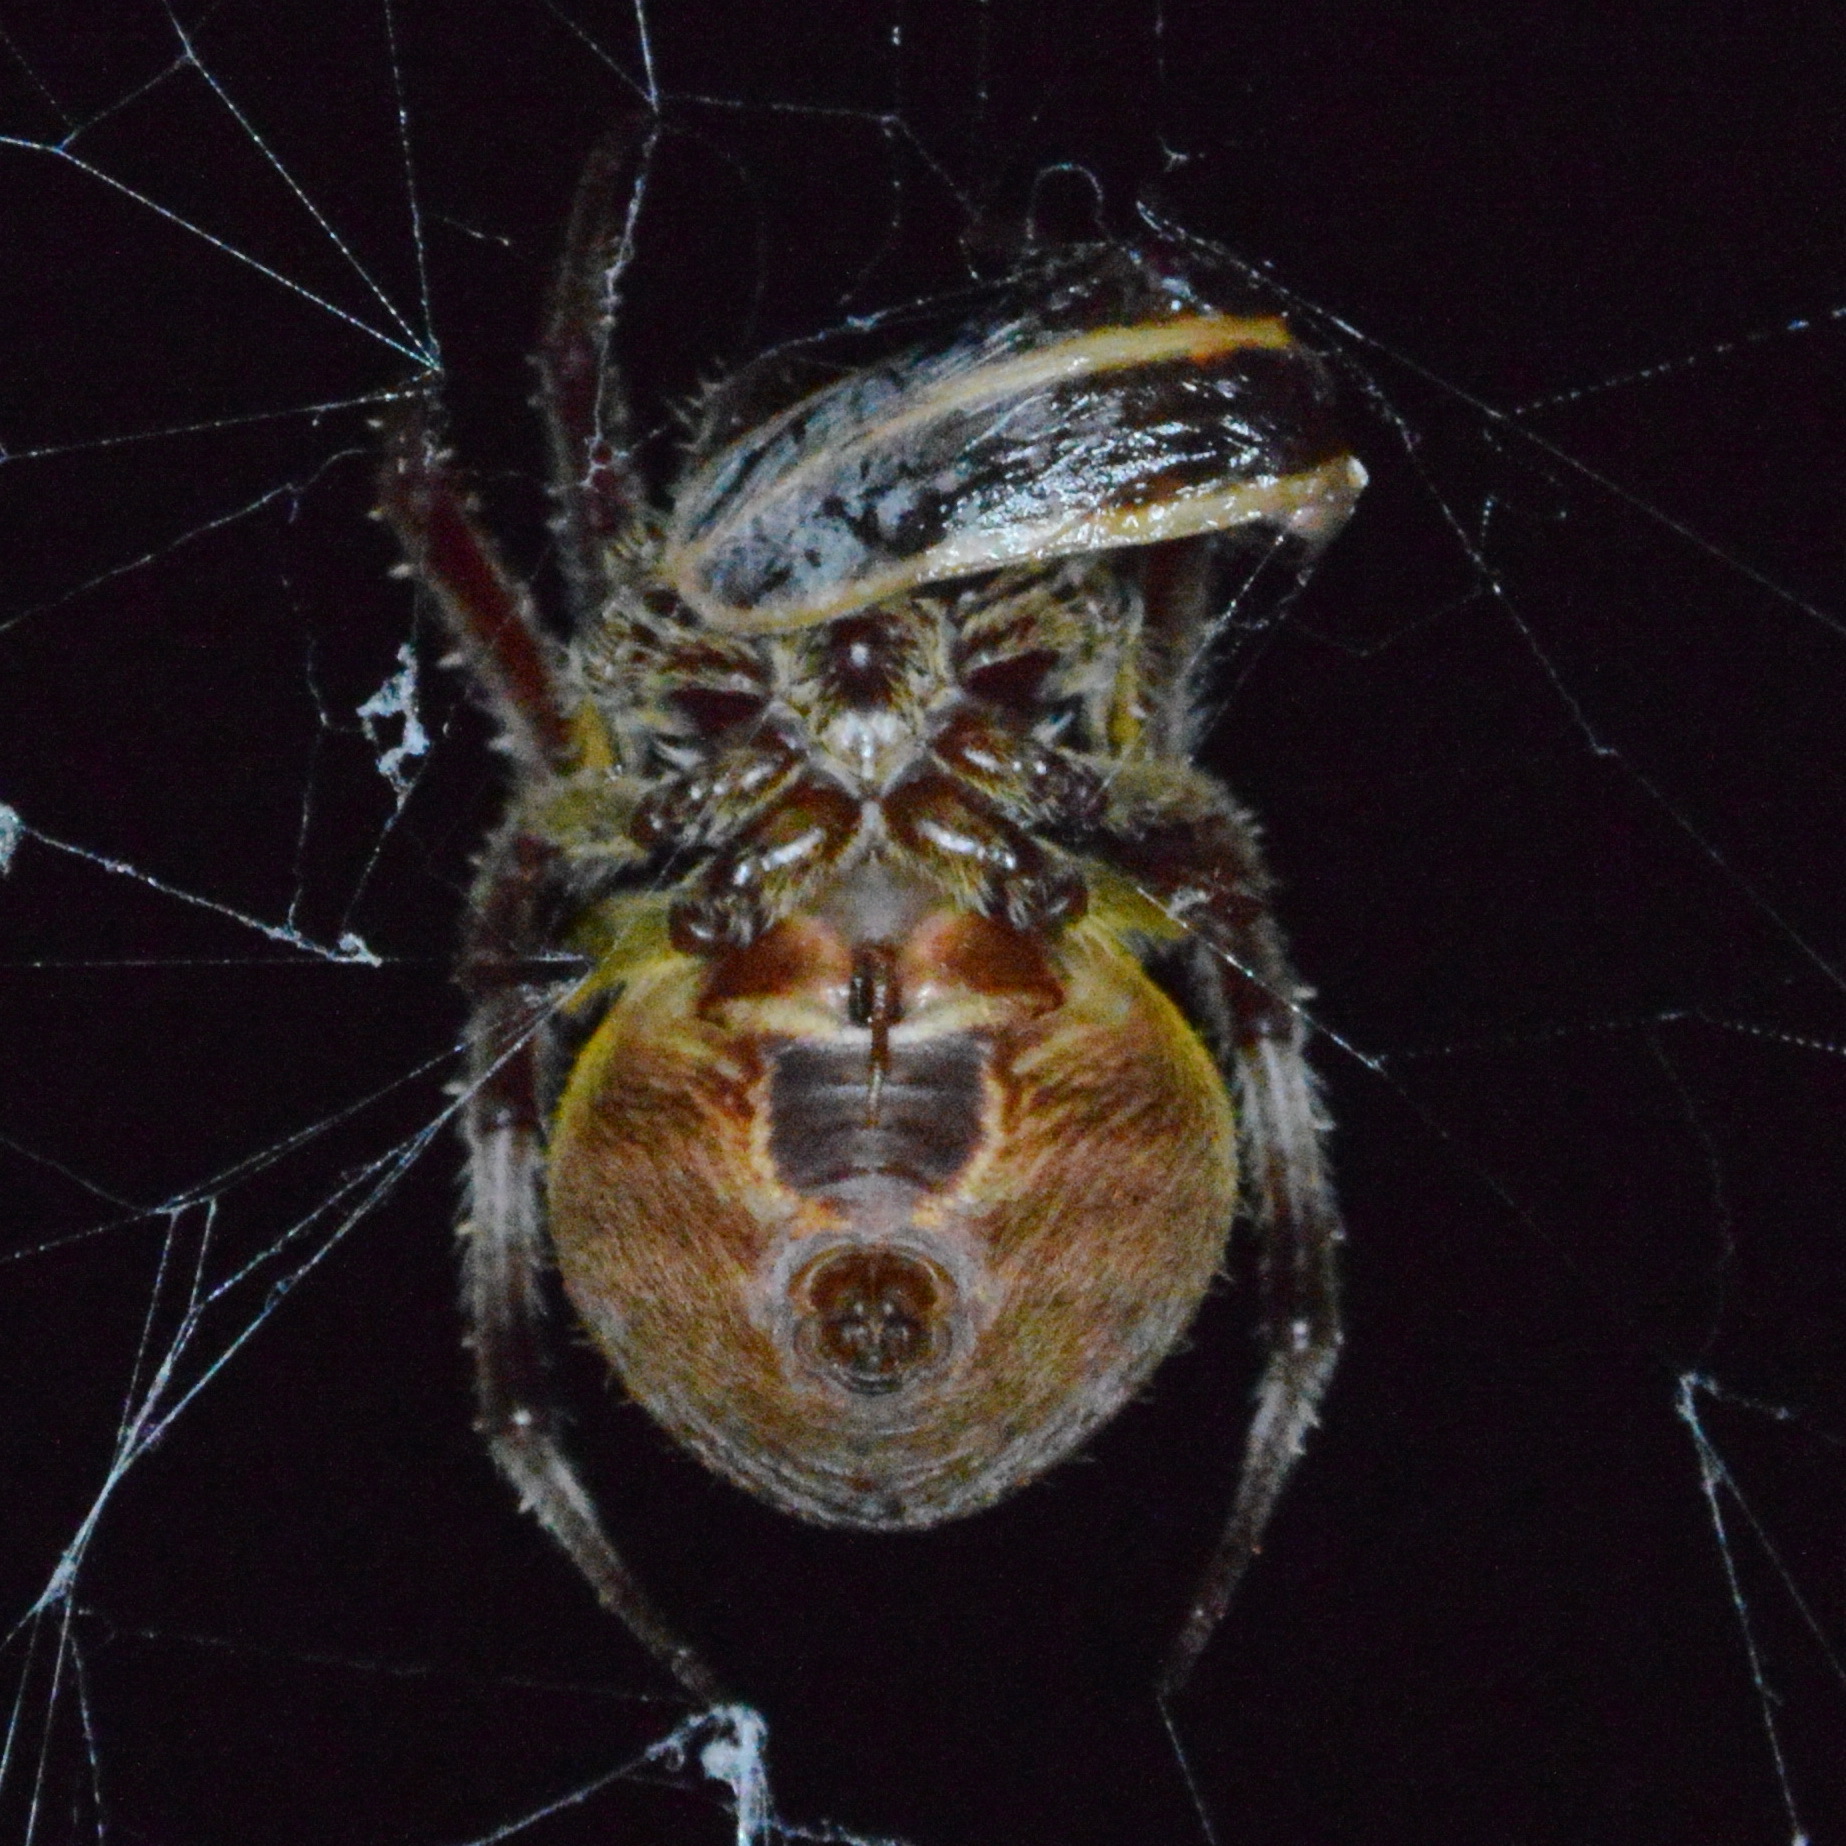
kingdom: Animalia
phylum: Arthropoda
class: Arachnida
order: Araneae
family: Araneidae
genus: Eriophora
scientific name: Eriophora ravilla
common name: Orb weavers
